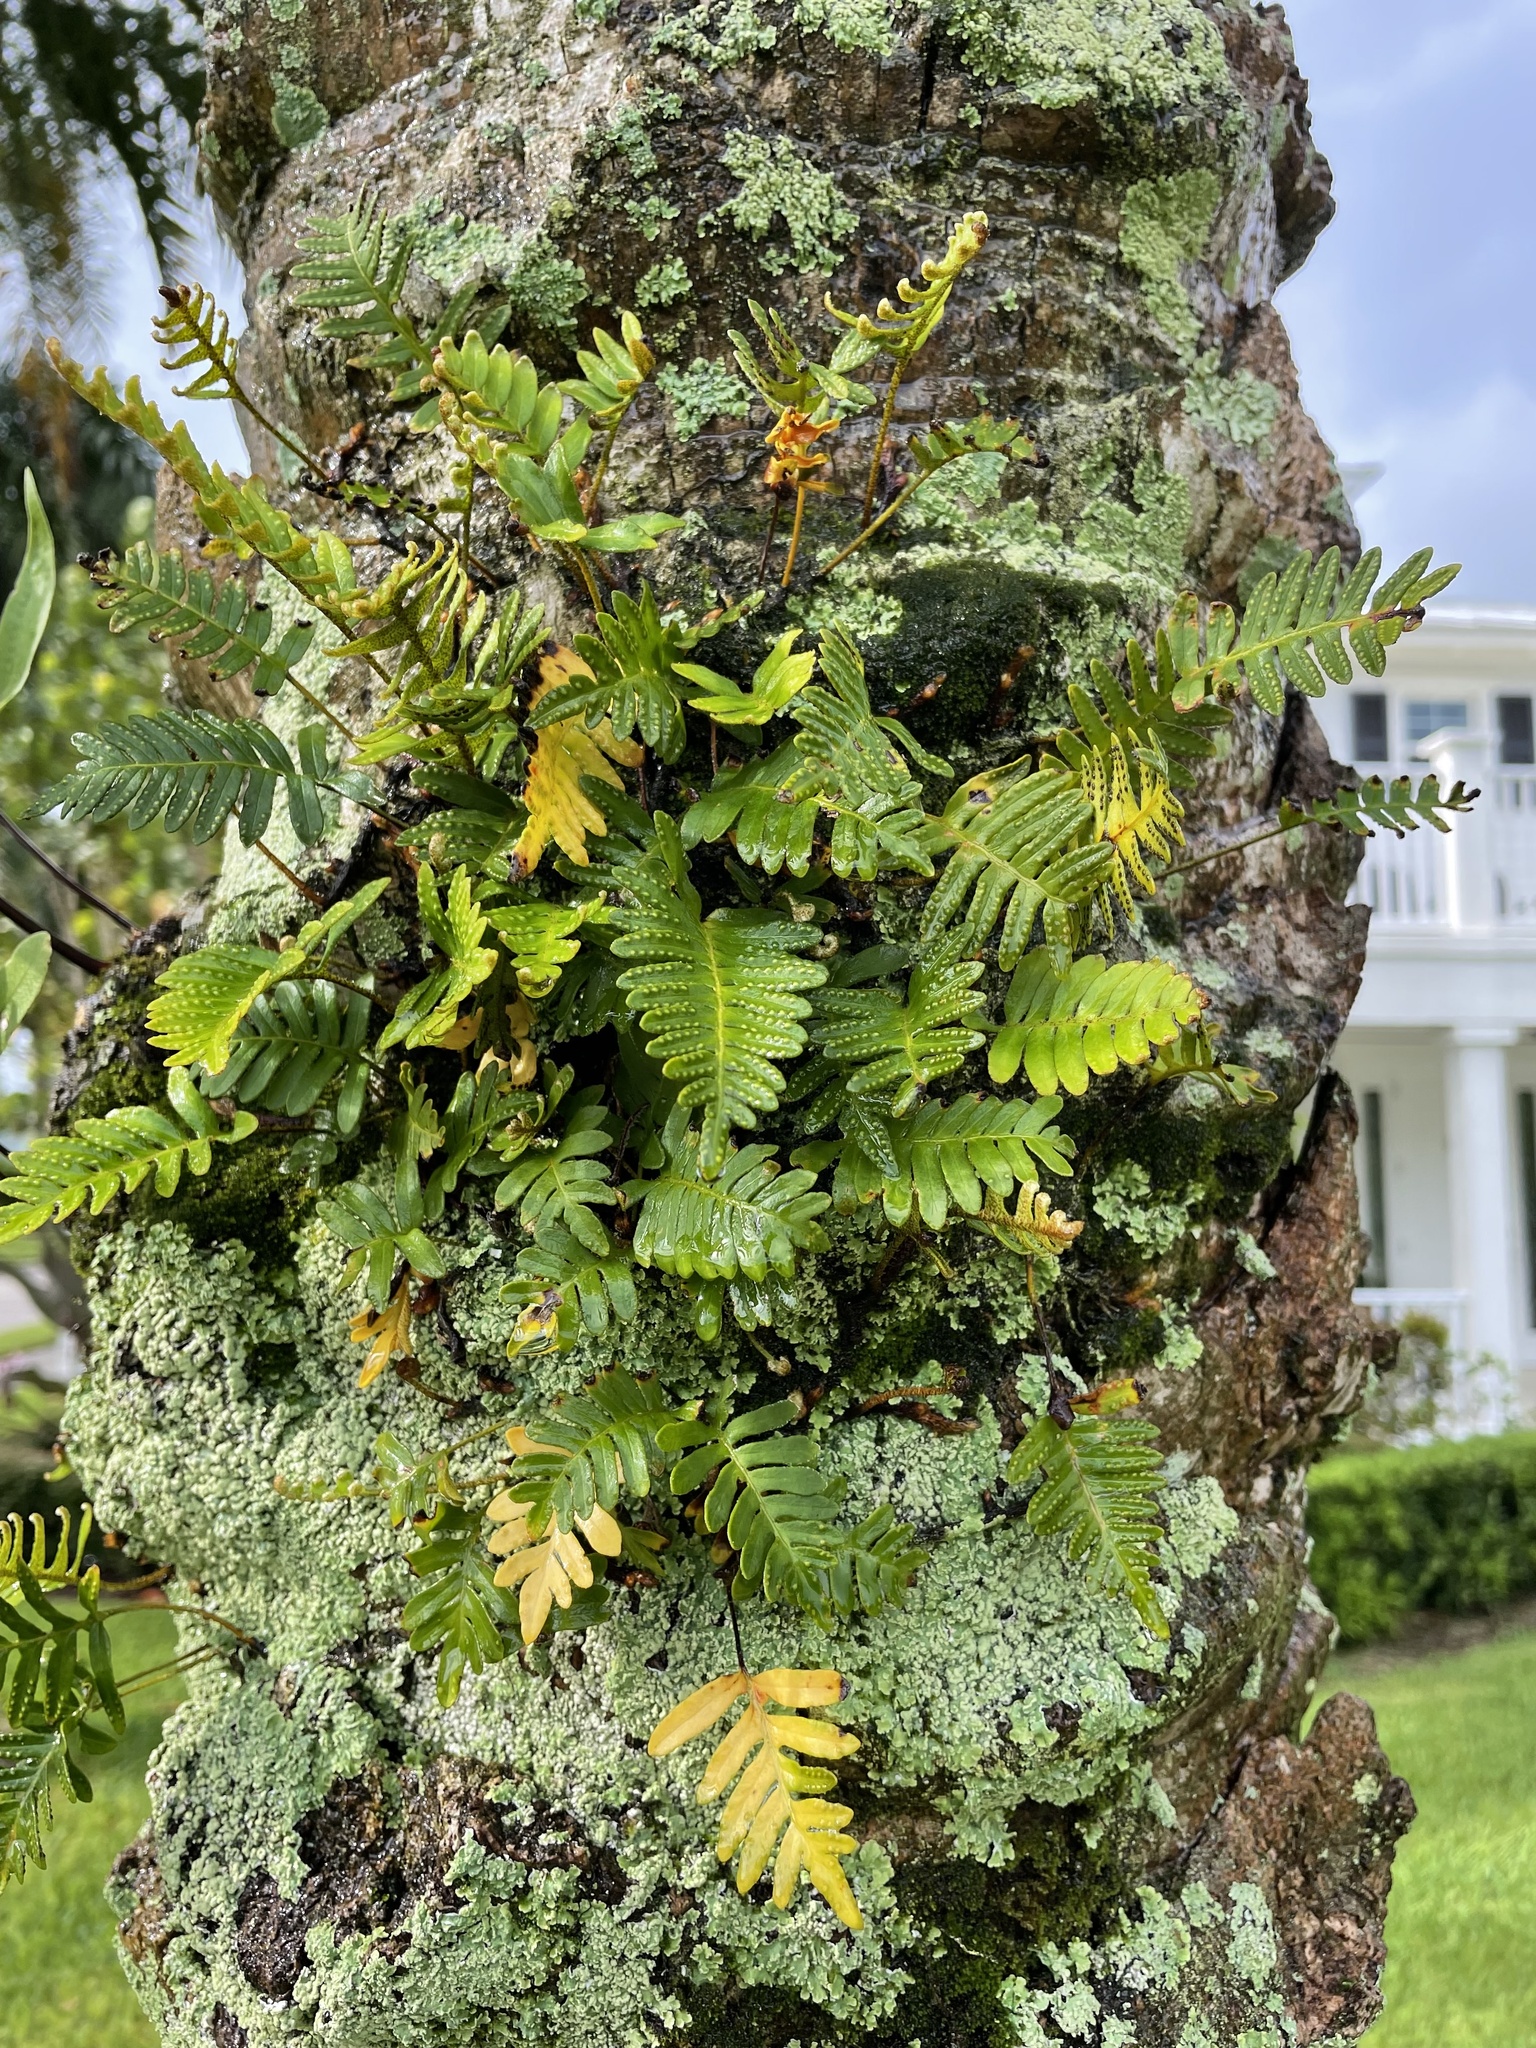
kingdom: Plantae
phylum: Tracheophyta
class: Polypodiopsida
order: Polypodiales
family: Polypodiaceae
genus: Pleopeltis
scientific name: Pleopeltis michauxiana
